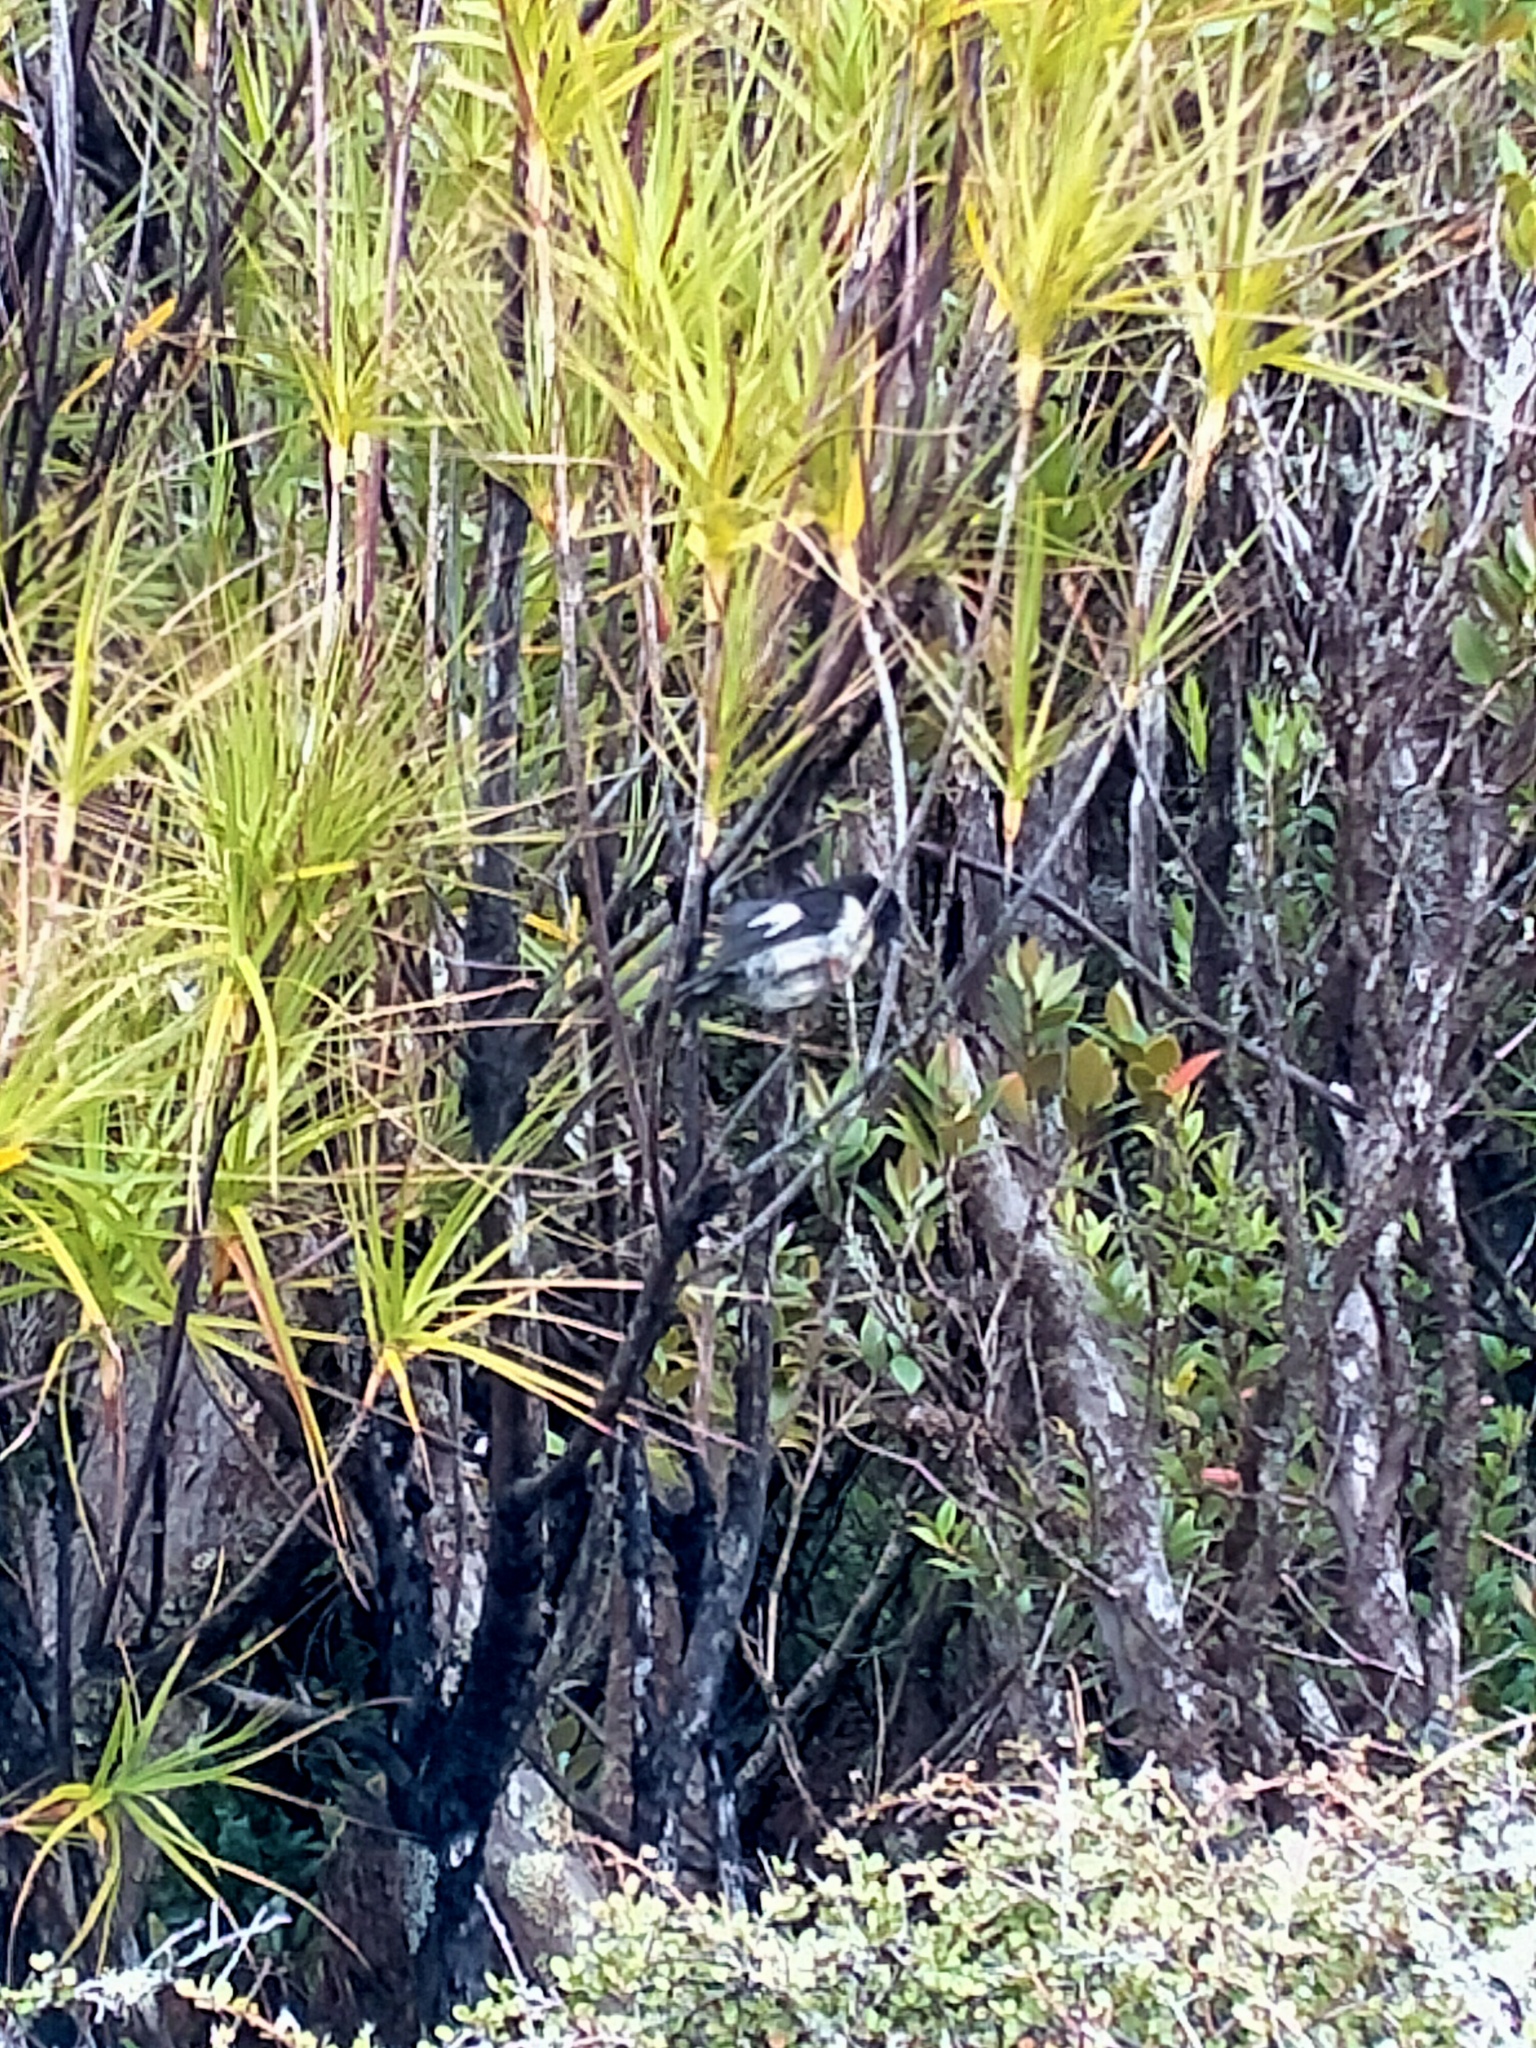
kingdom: Animalia
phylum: Chordata
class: Aves
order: Passeriformes
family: Petroicidae
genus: Petroica
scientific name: Petroica macrocephala
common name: Tomtit
